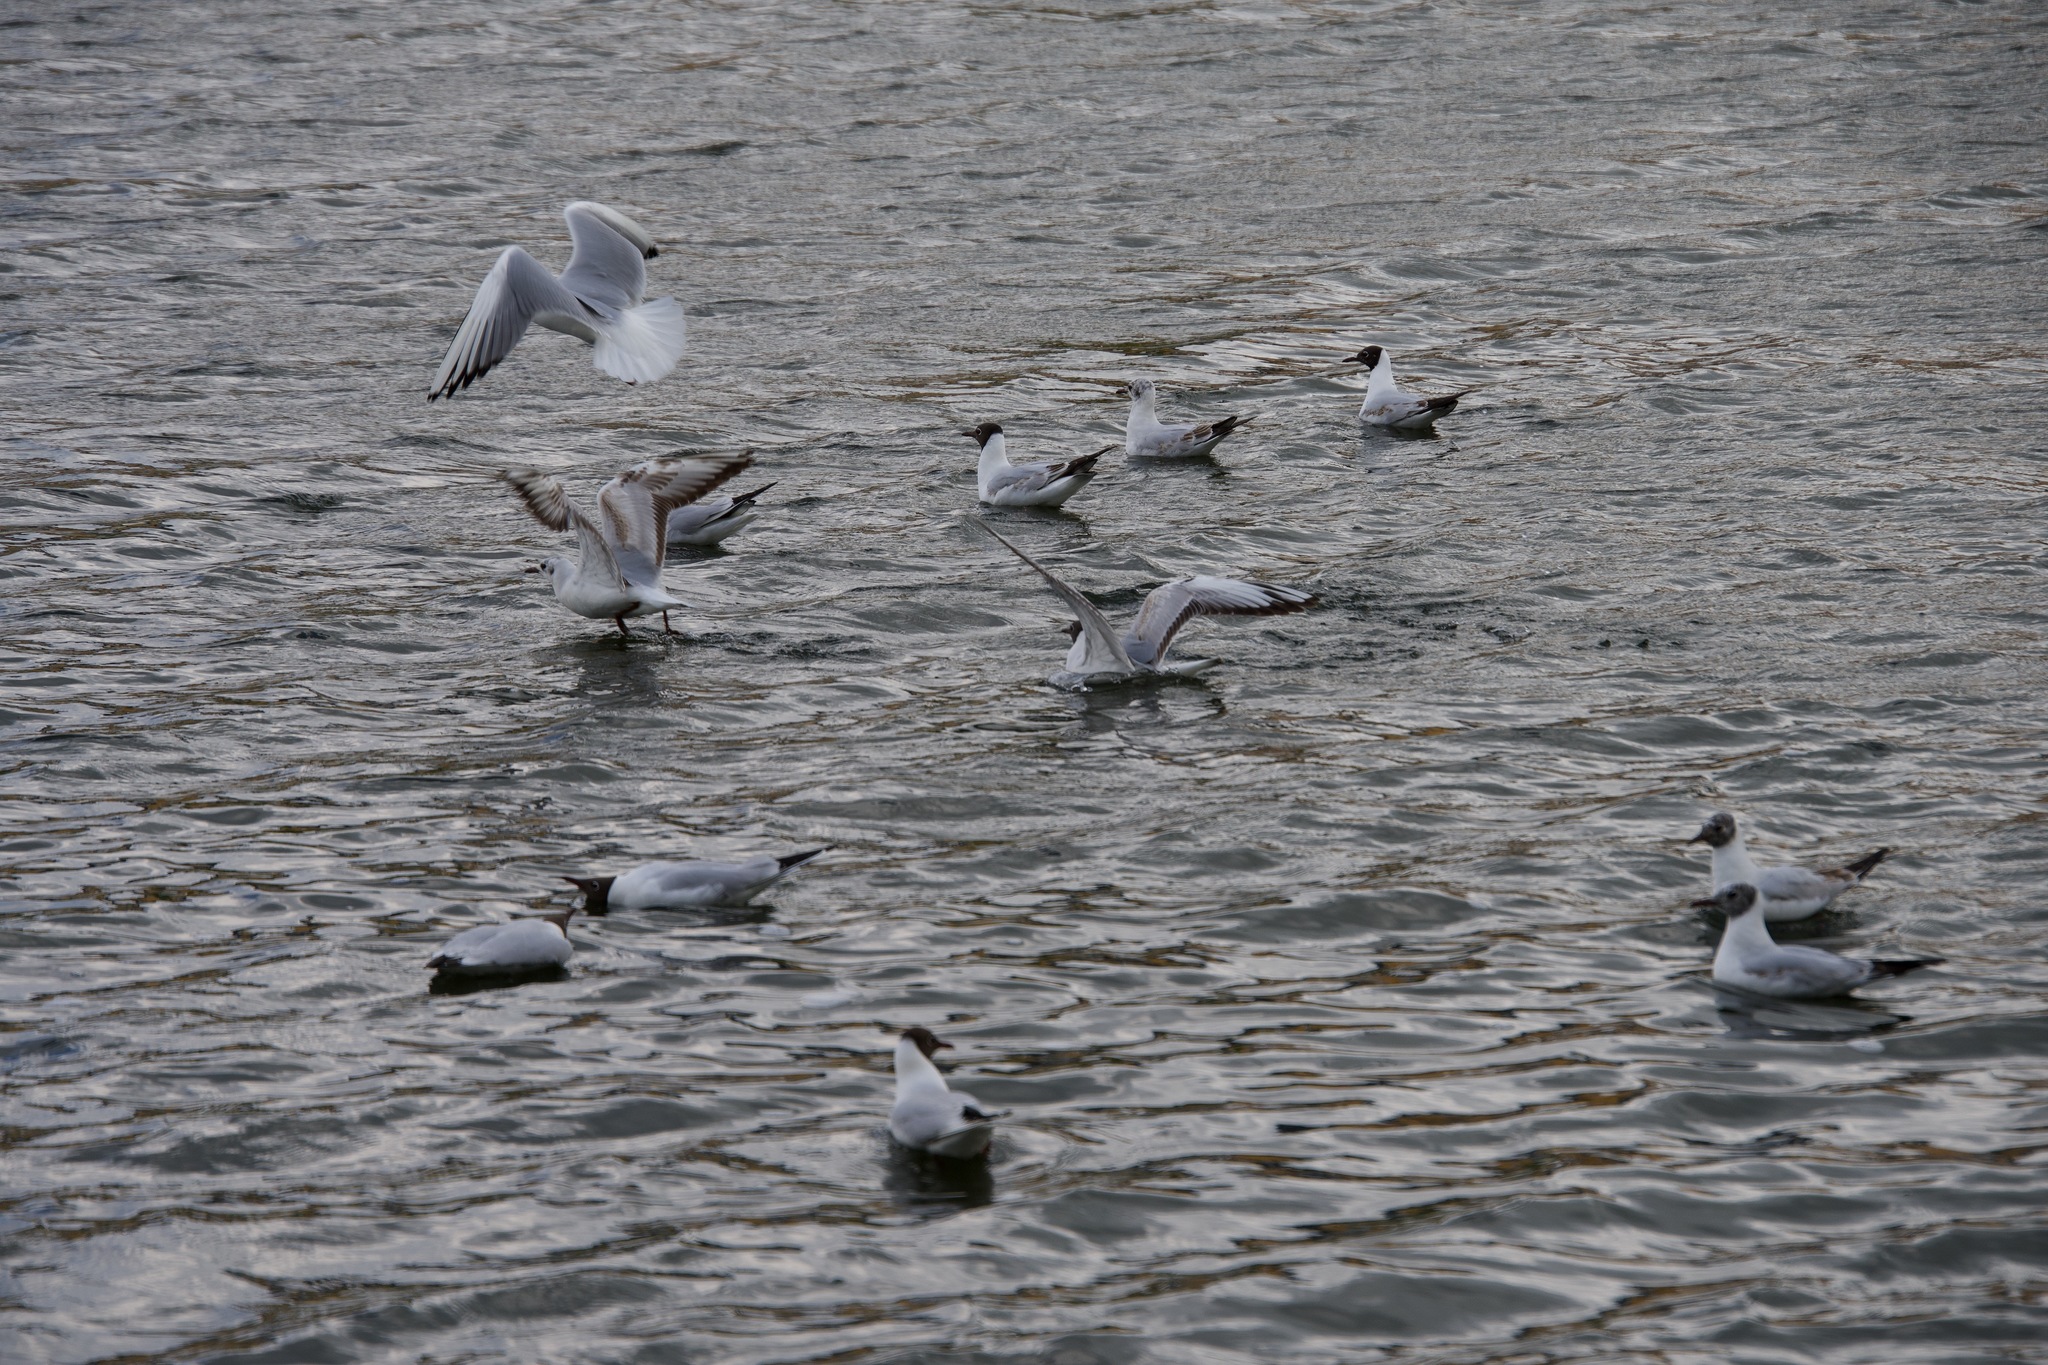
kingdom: Animalia
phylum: Chordata
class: Aves
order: Charadriiformes
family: Laridae
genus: Chroicocephalus
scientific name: Chroicocephalus ridibundus
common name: Black-headed gull
